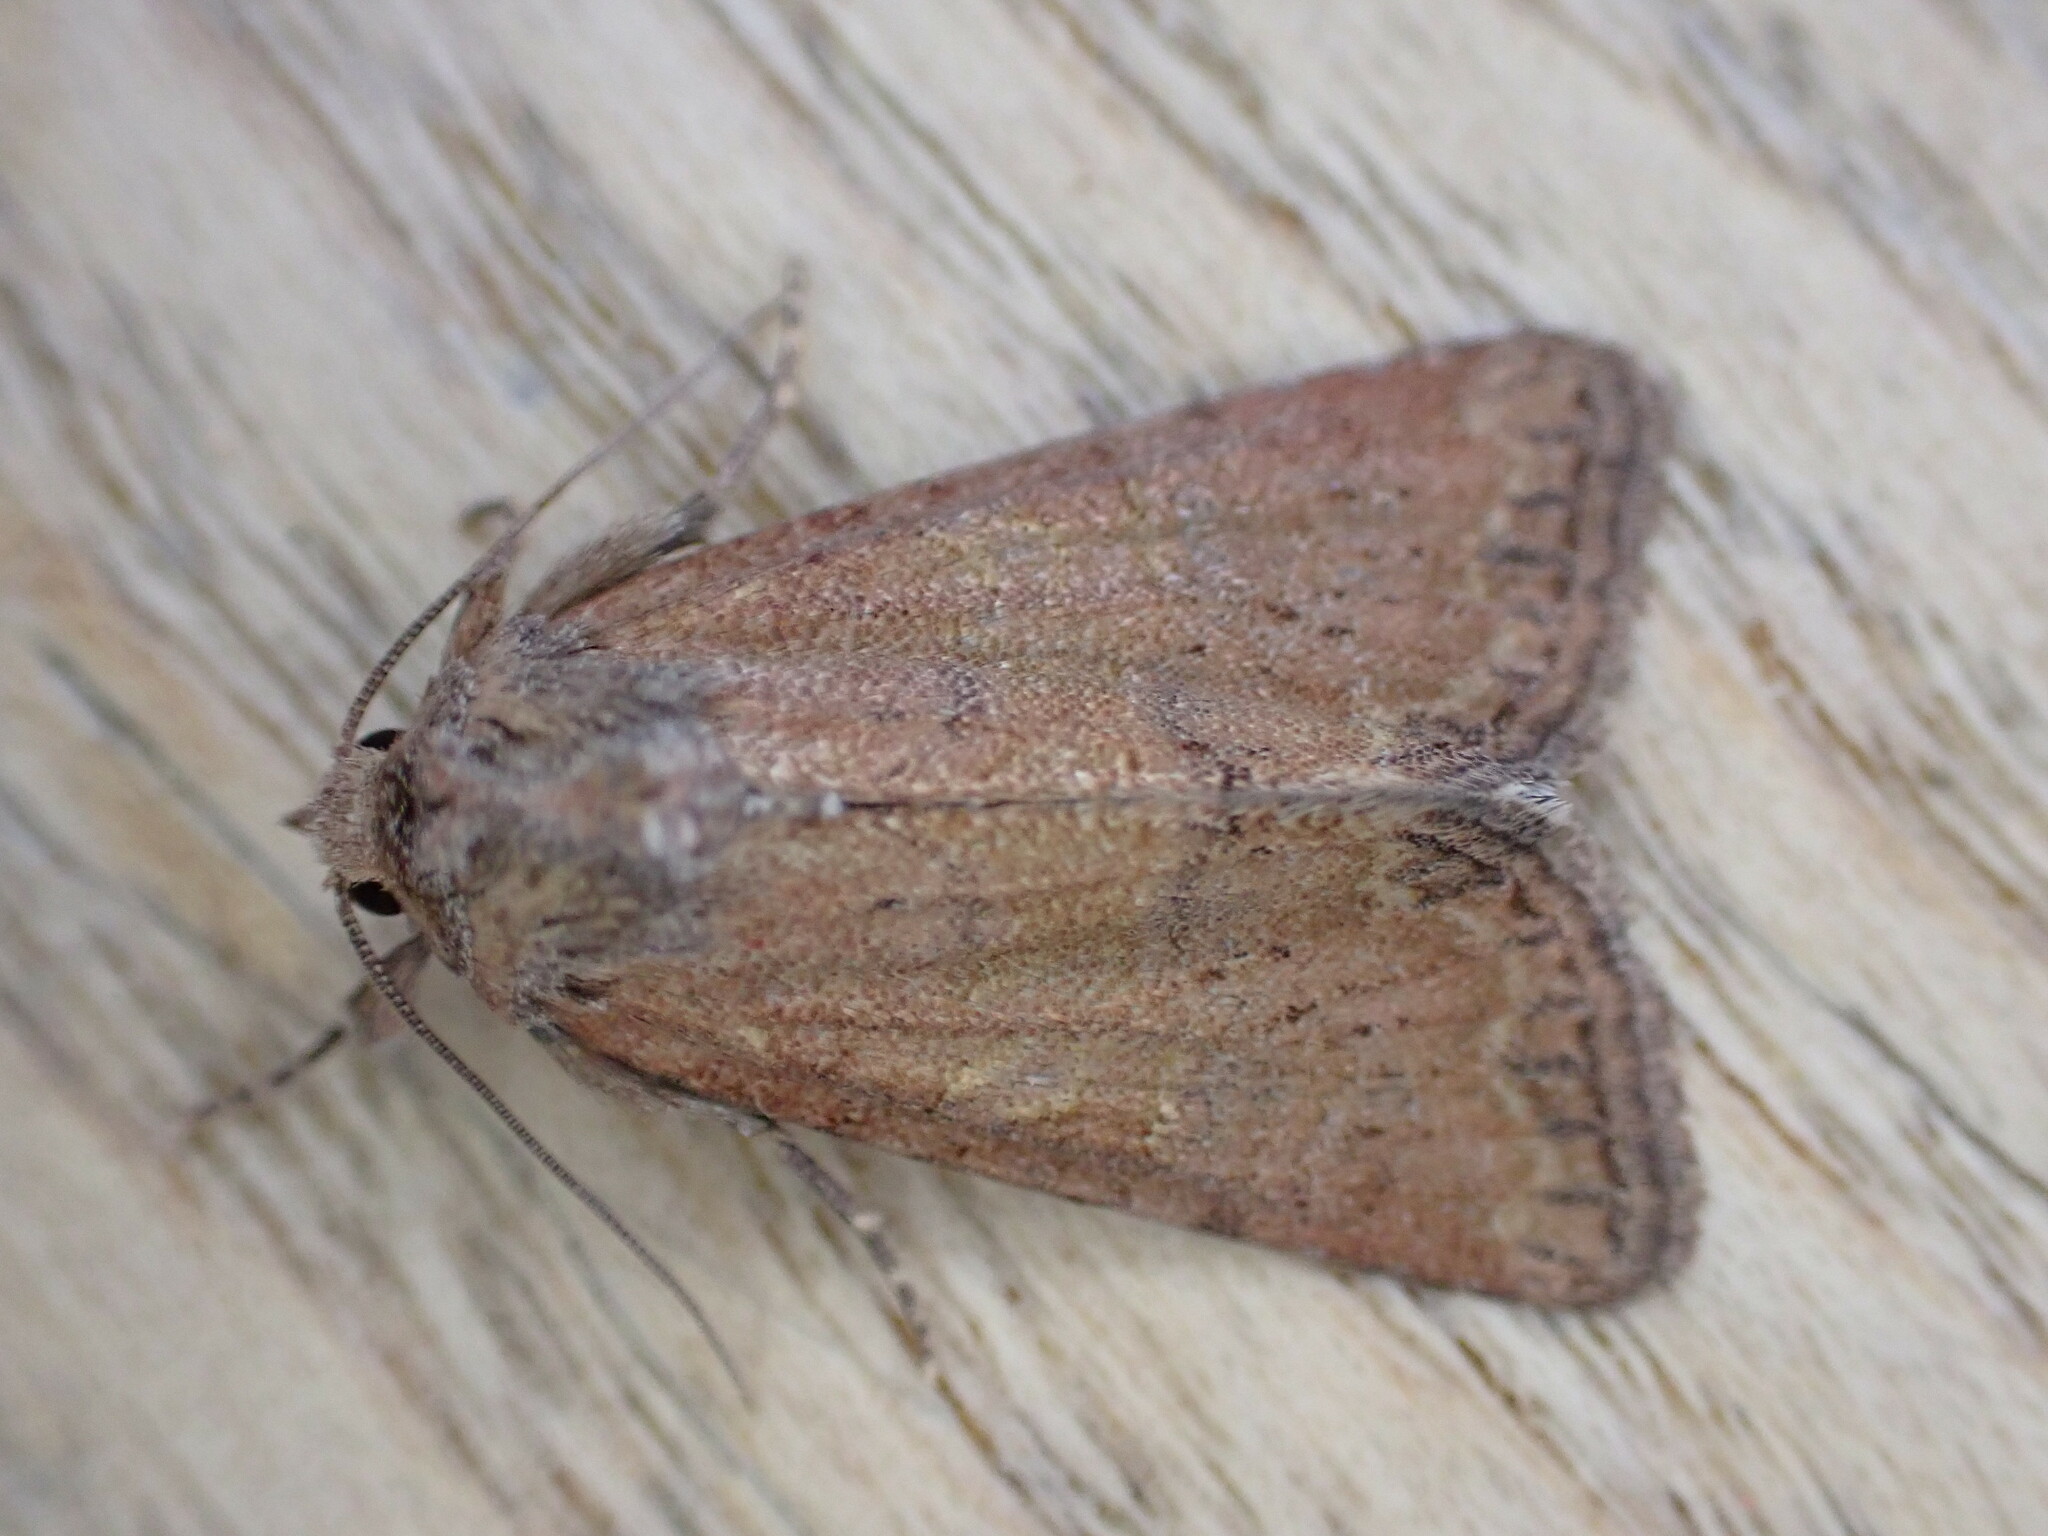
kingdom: Animalia
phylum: Arthropoda
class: Insecta
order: Lepidoptera
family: Noctuidae
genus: Mesoligia
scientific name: Mesoligia furuncula
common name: Cloaked minor
